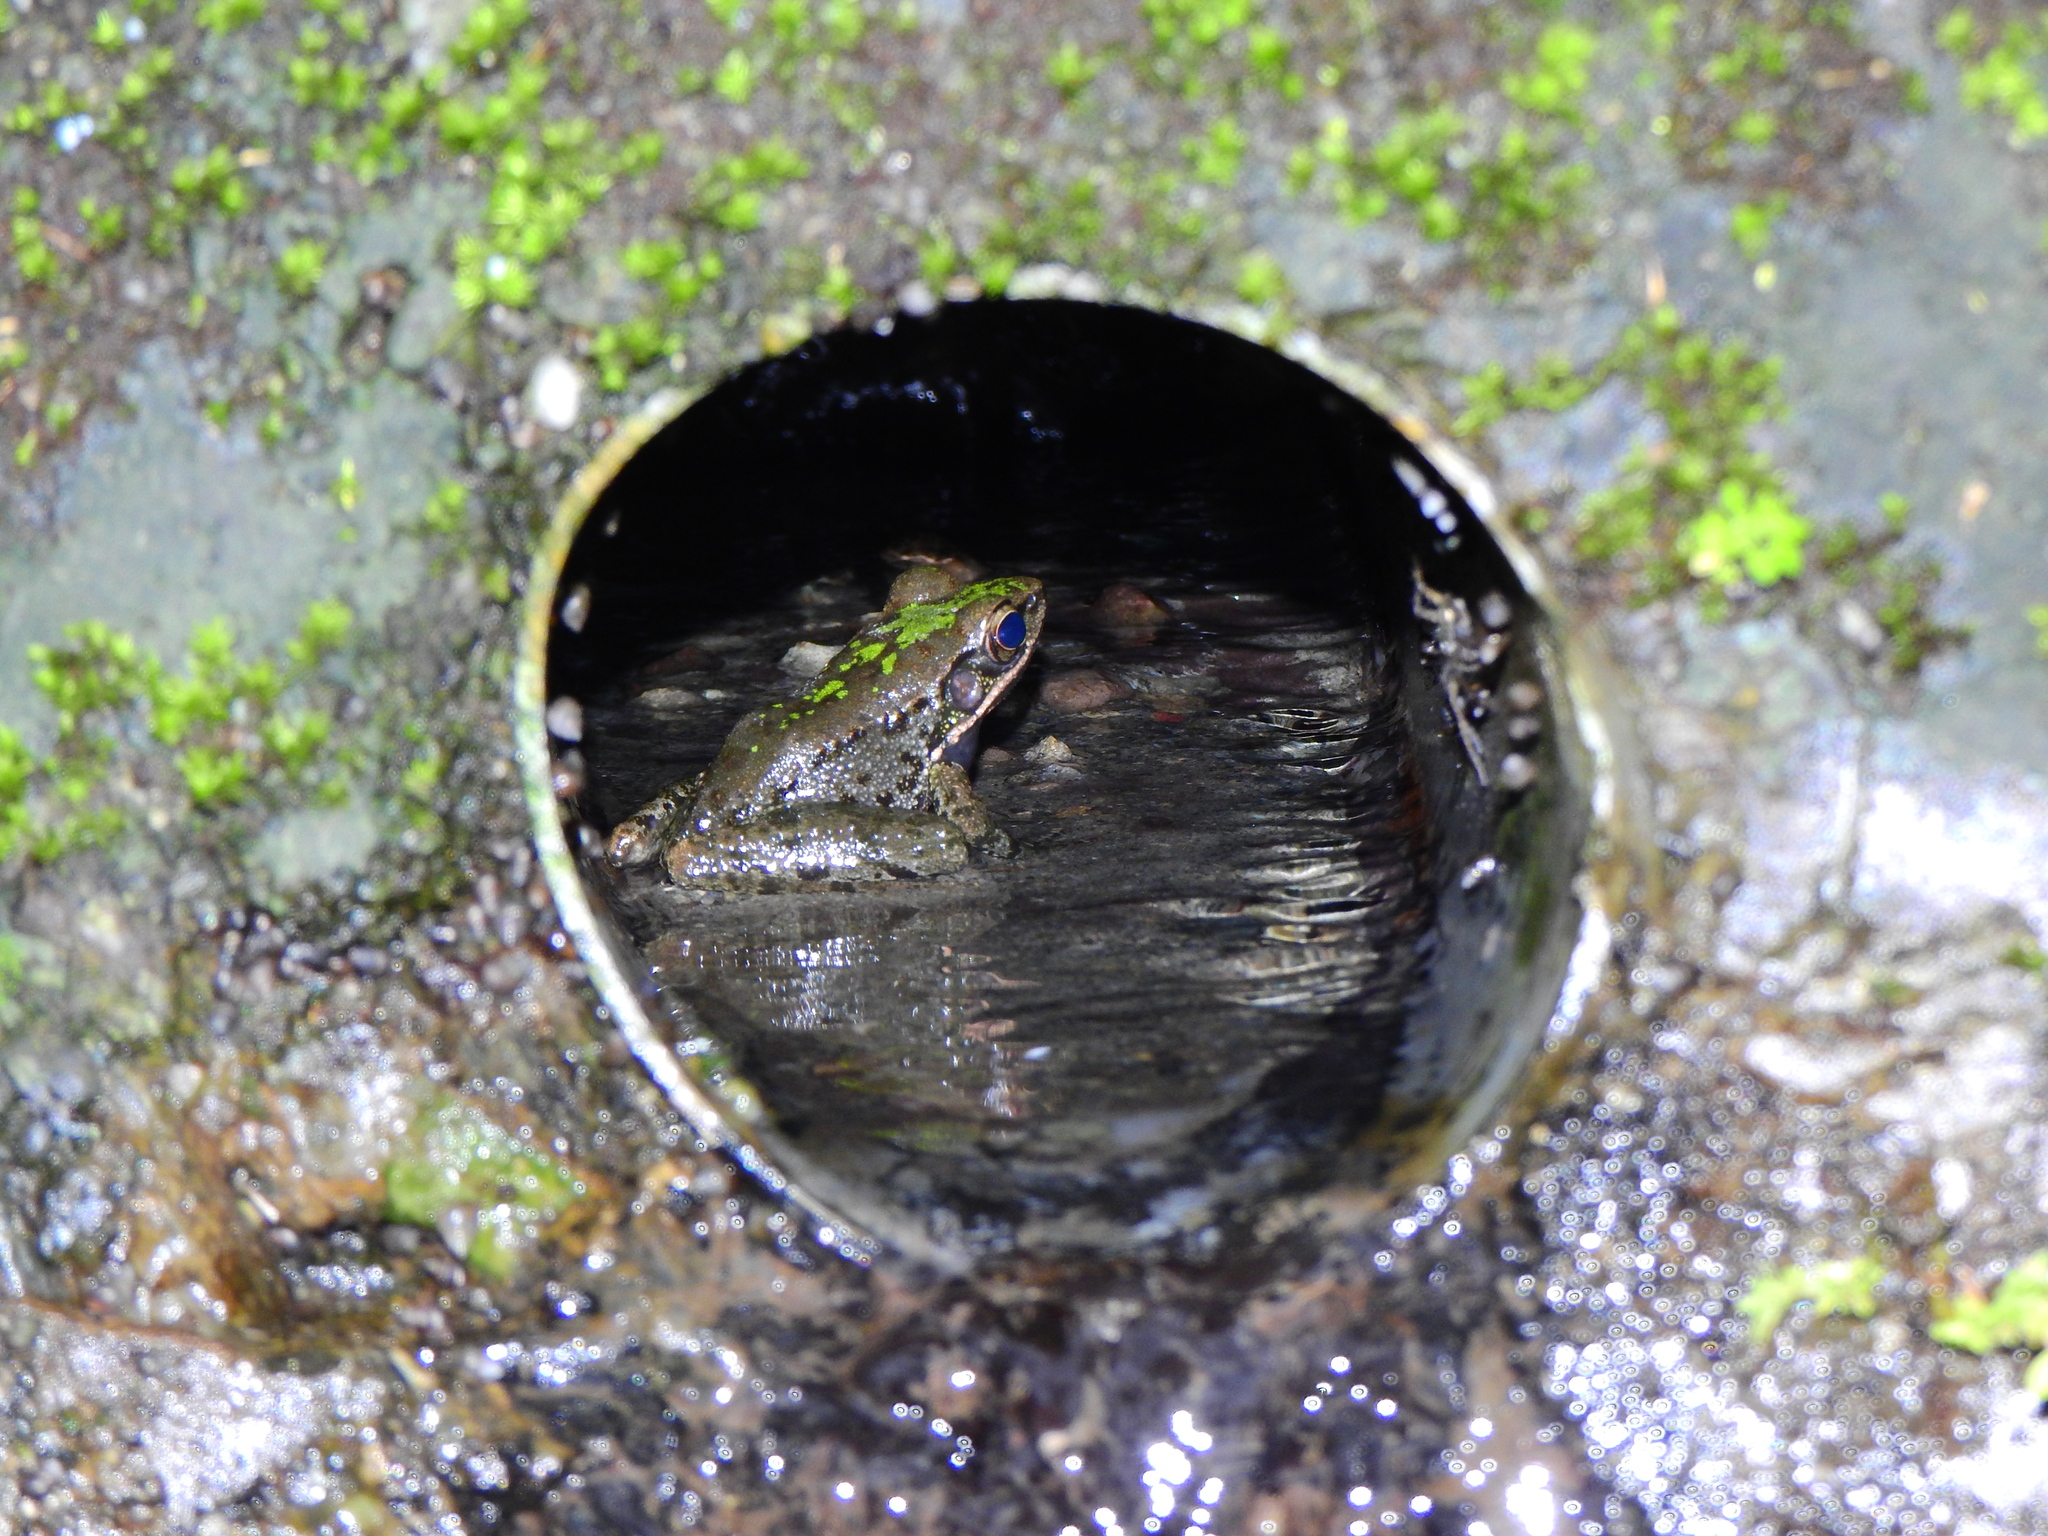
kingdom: Animalia
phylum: Chordata
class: Amphibia
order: Anura
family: Ranidae
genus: Odorrana
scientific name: Odorrana swinhoana
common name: Bangkimtsing frog
